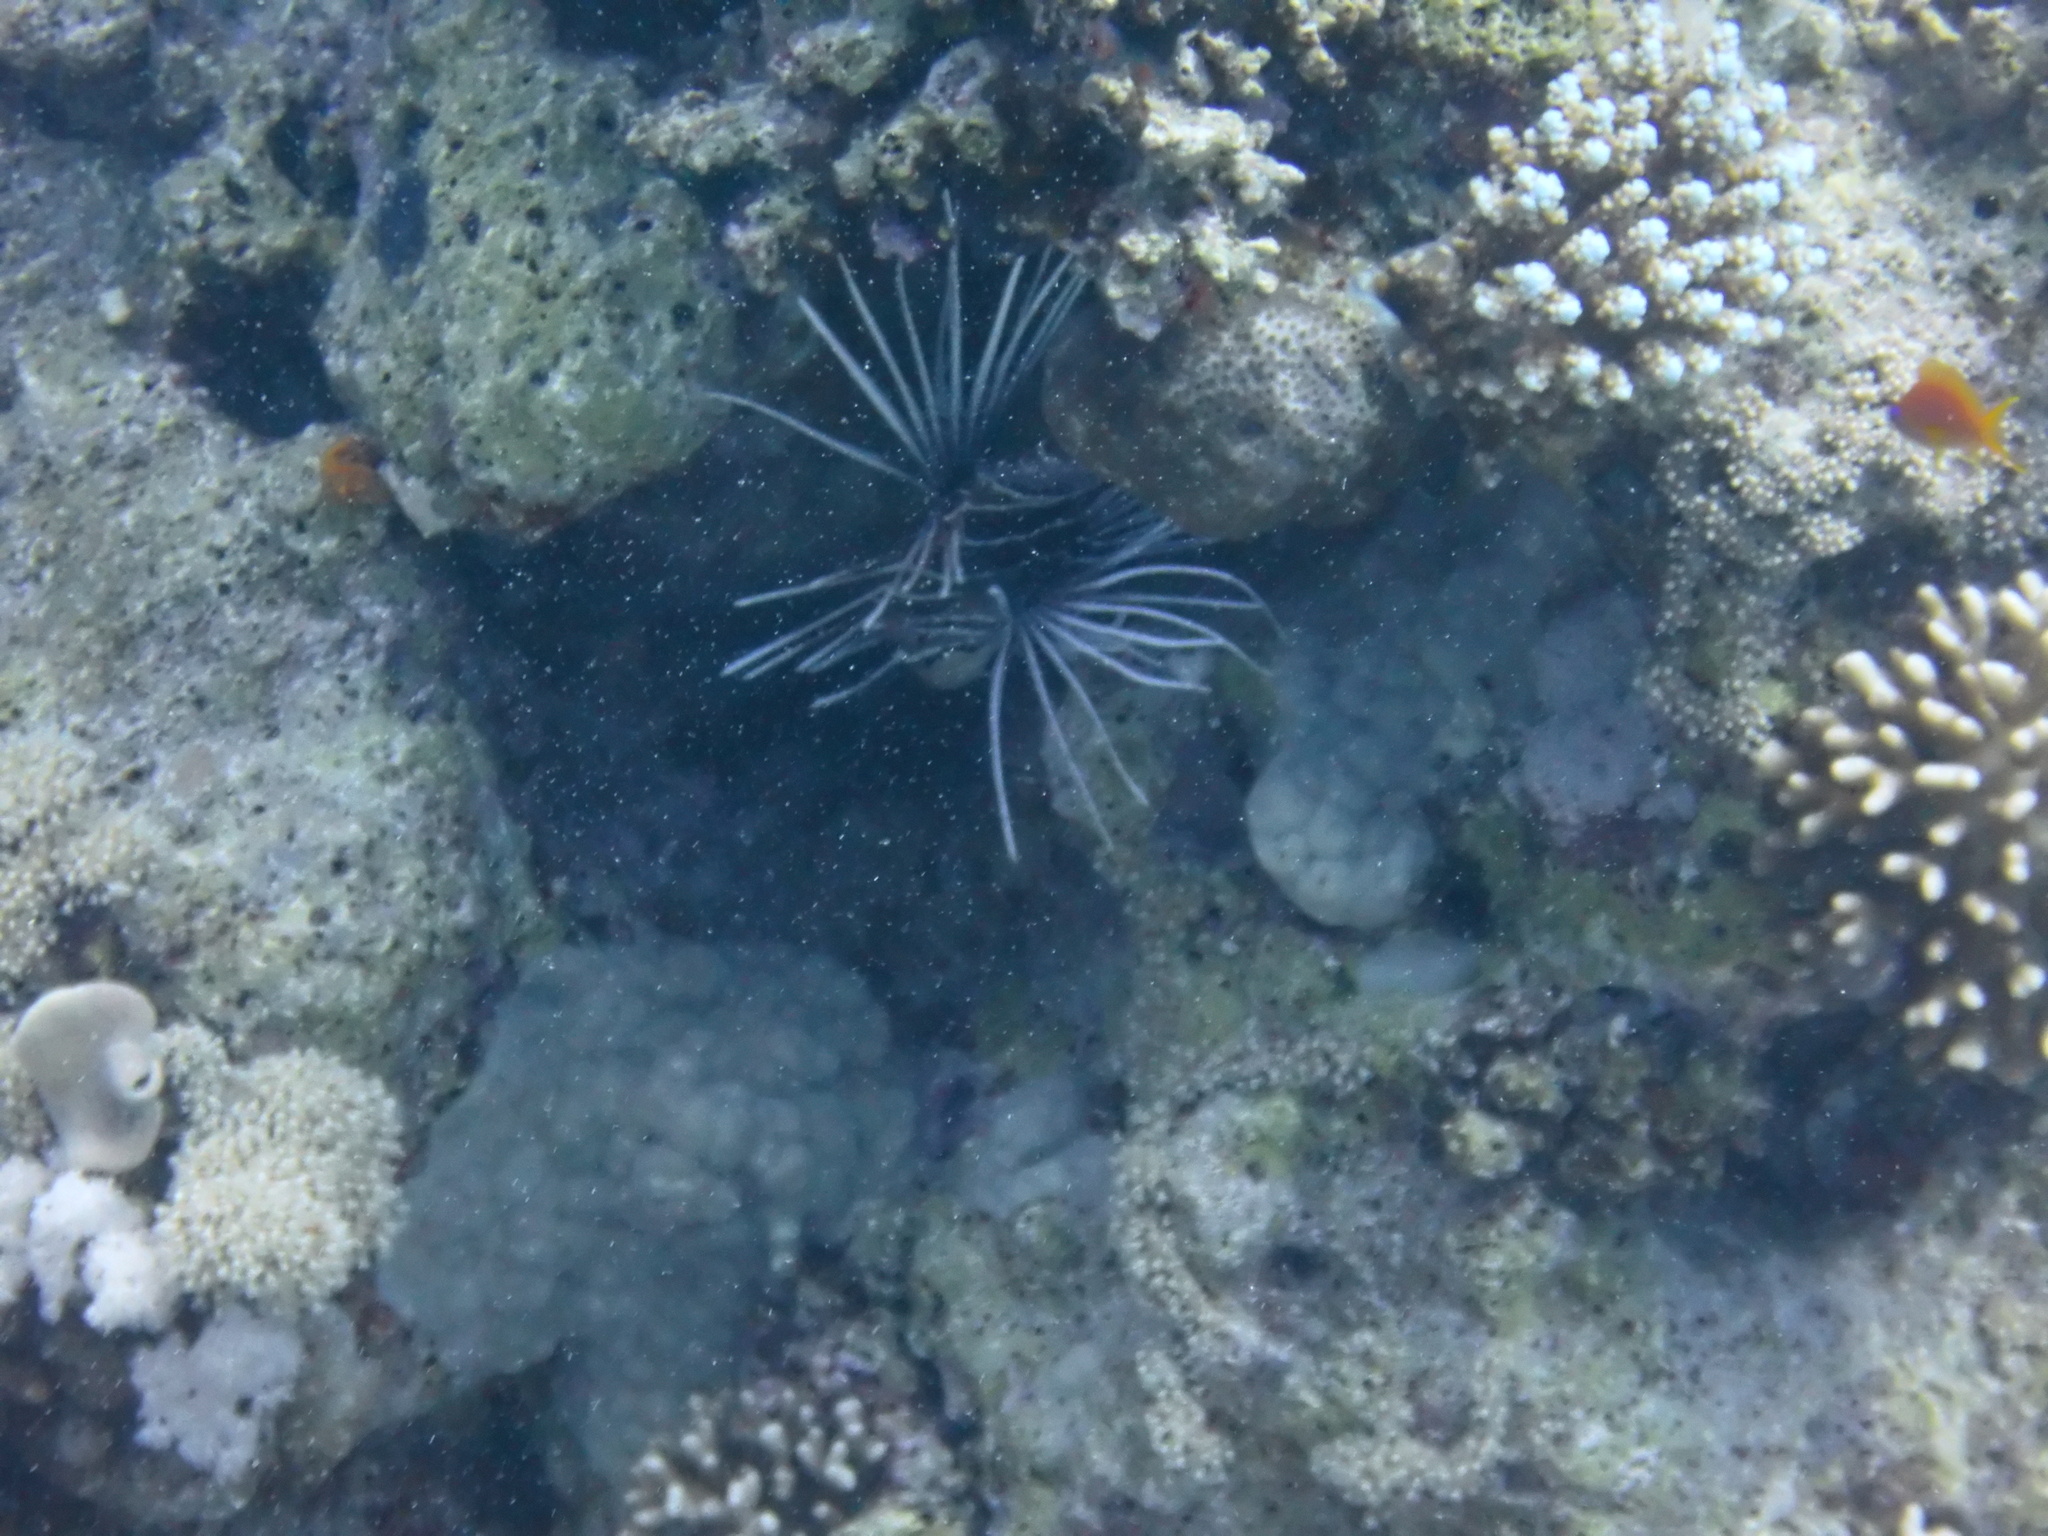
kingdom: Animalia
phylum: Chordata
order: Scorpaeniformes
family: Scorpaenidae
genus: Pterois
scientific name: Pterois cincta
